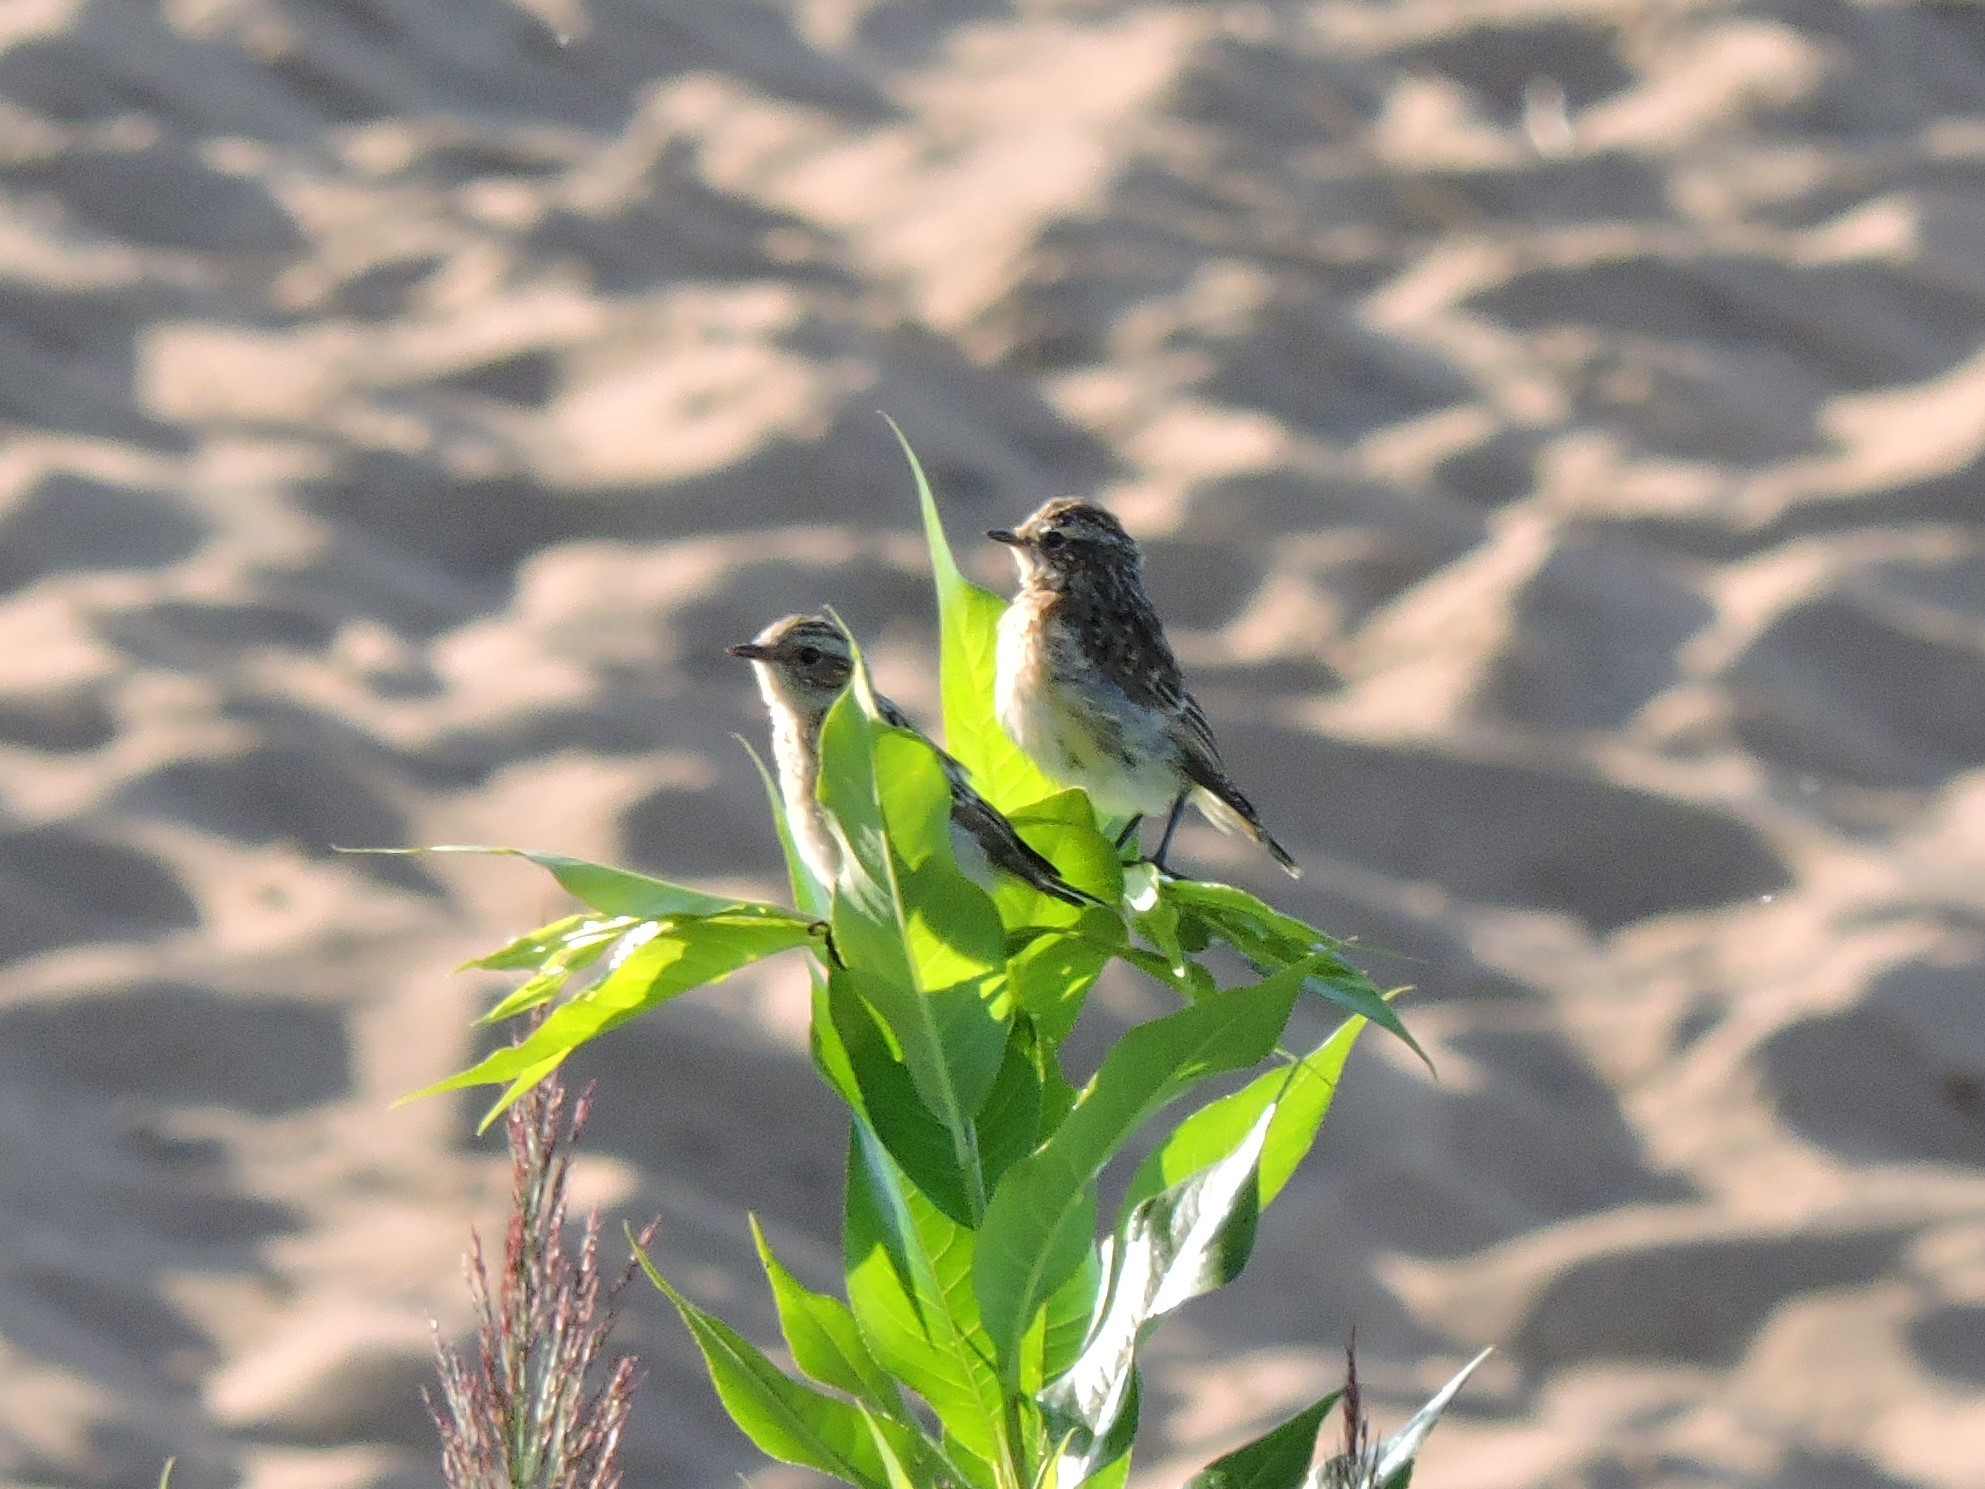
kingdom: Animalia
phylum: Chordata
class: Aves
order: Passeriformes
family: Muscicapidae
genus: Saxicola
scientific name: Saxicola rubetra
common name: Whinchat
